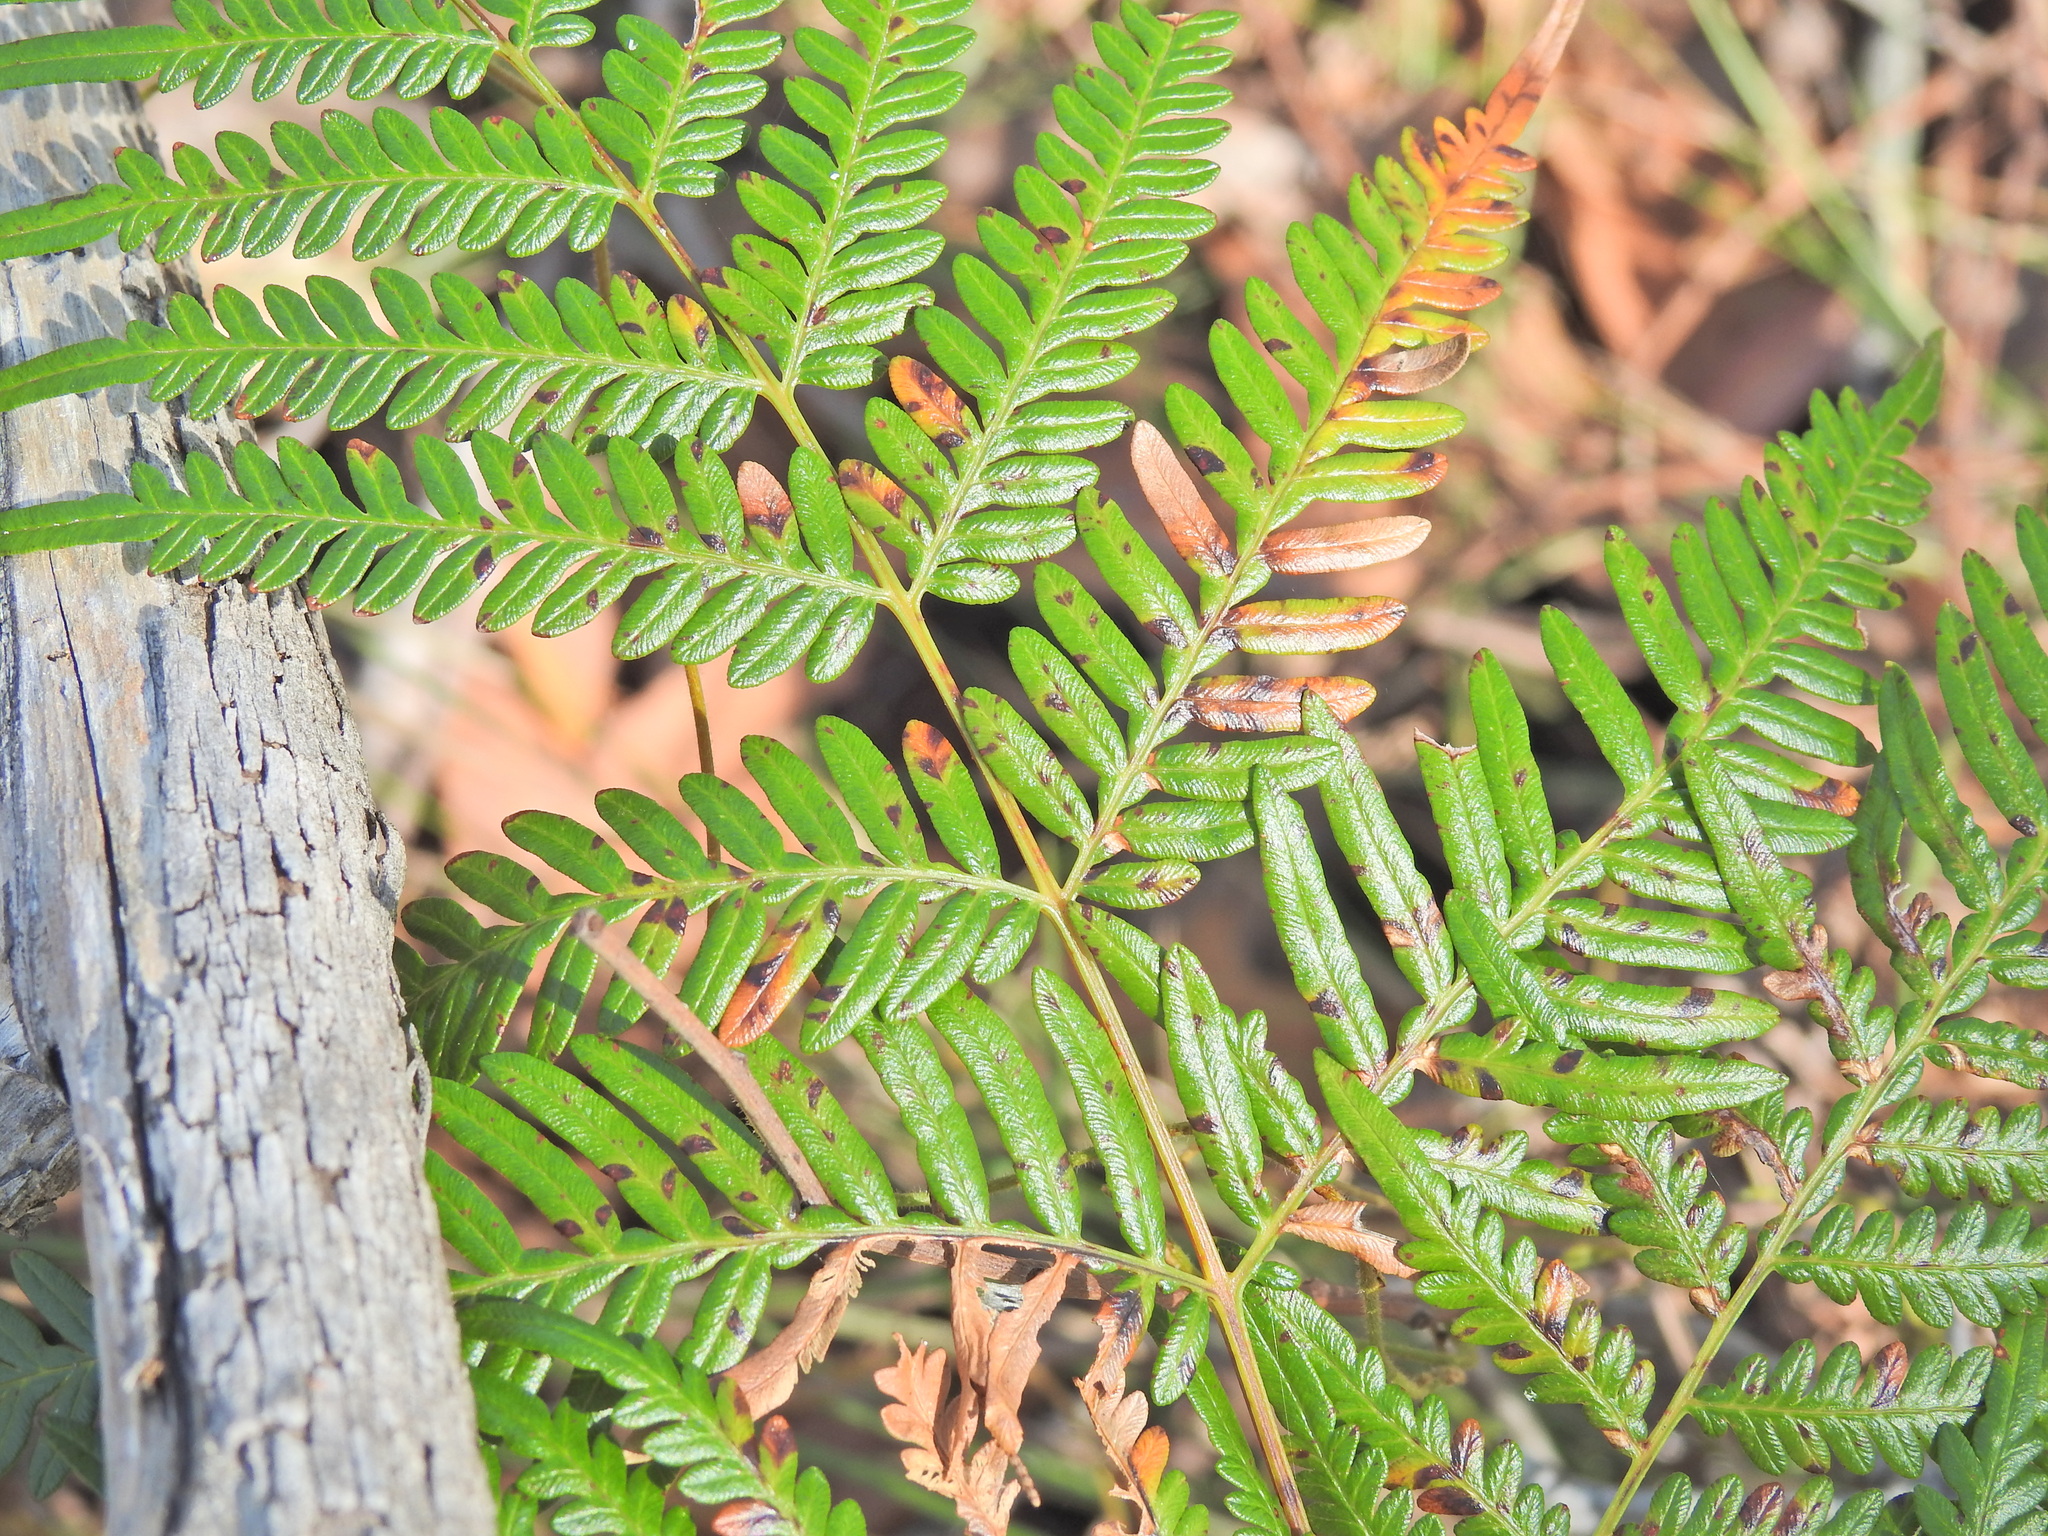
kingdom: Plantae
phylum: Tracheophyta
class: Polypodiopsida
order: Polypodiales
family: Dennstaedtiaceae
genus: Pteridium
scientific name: Pteridium esculentum
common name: Bracken fern
